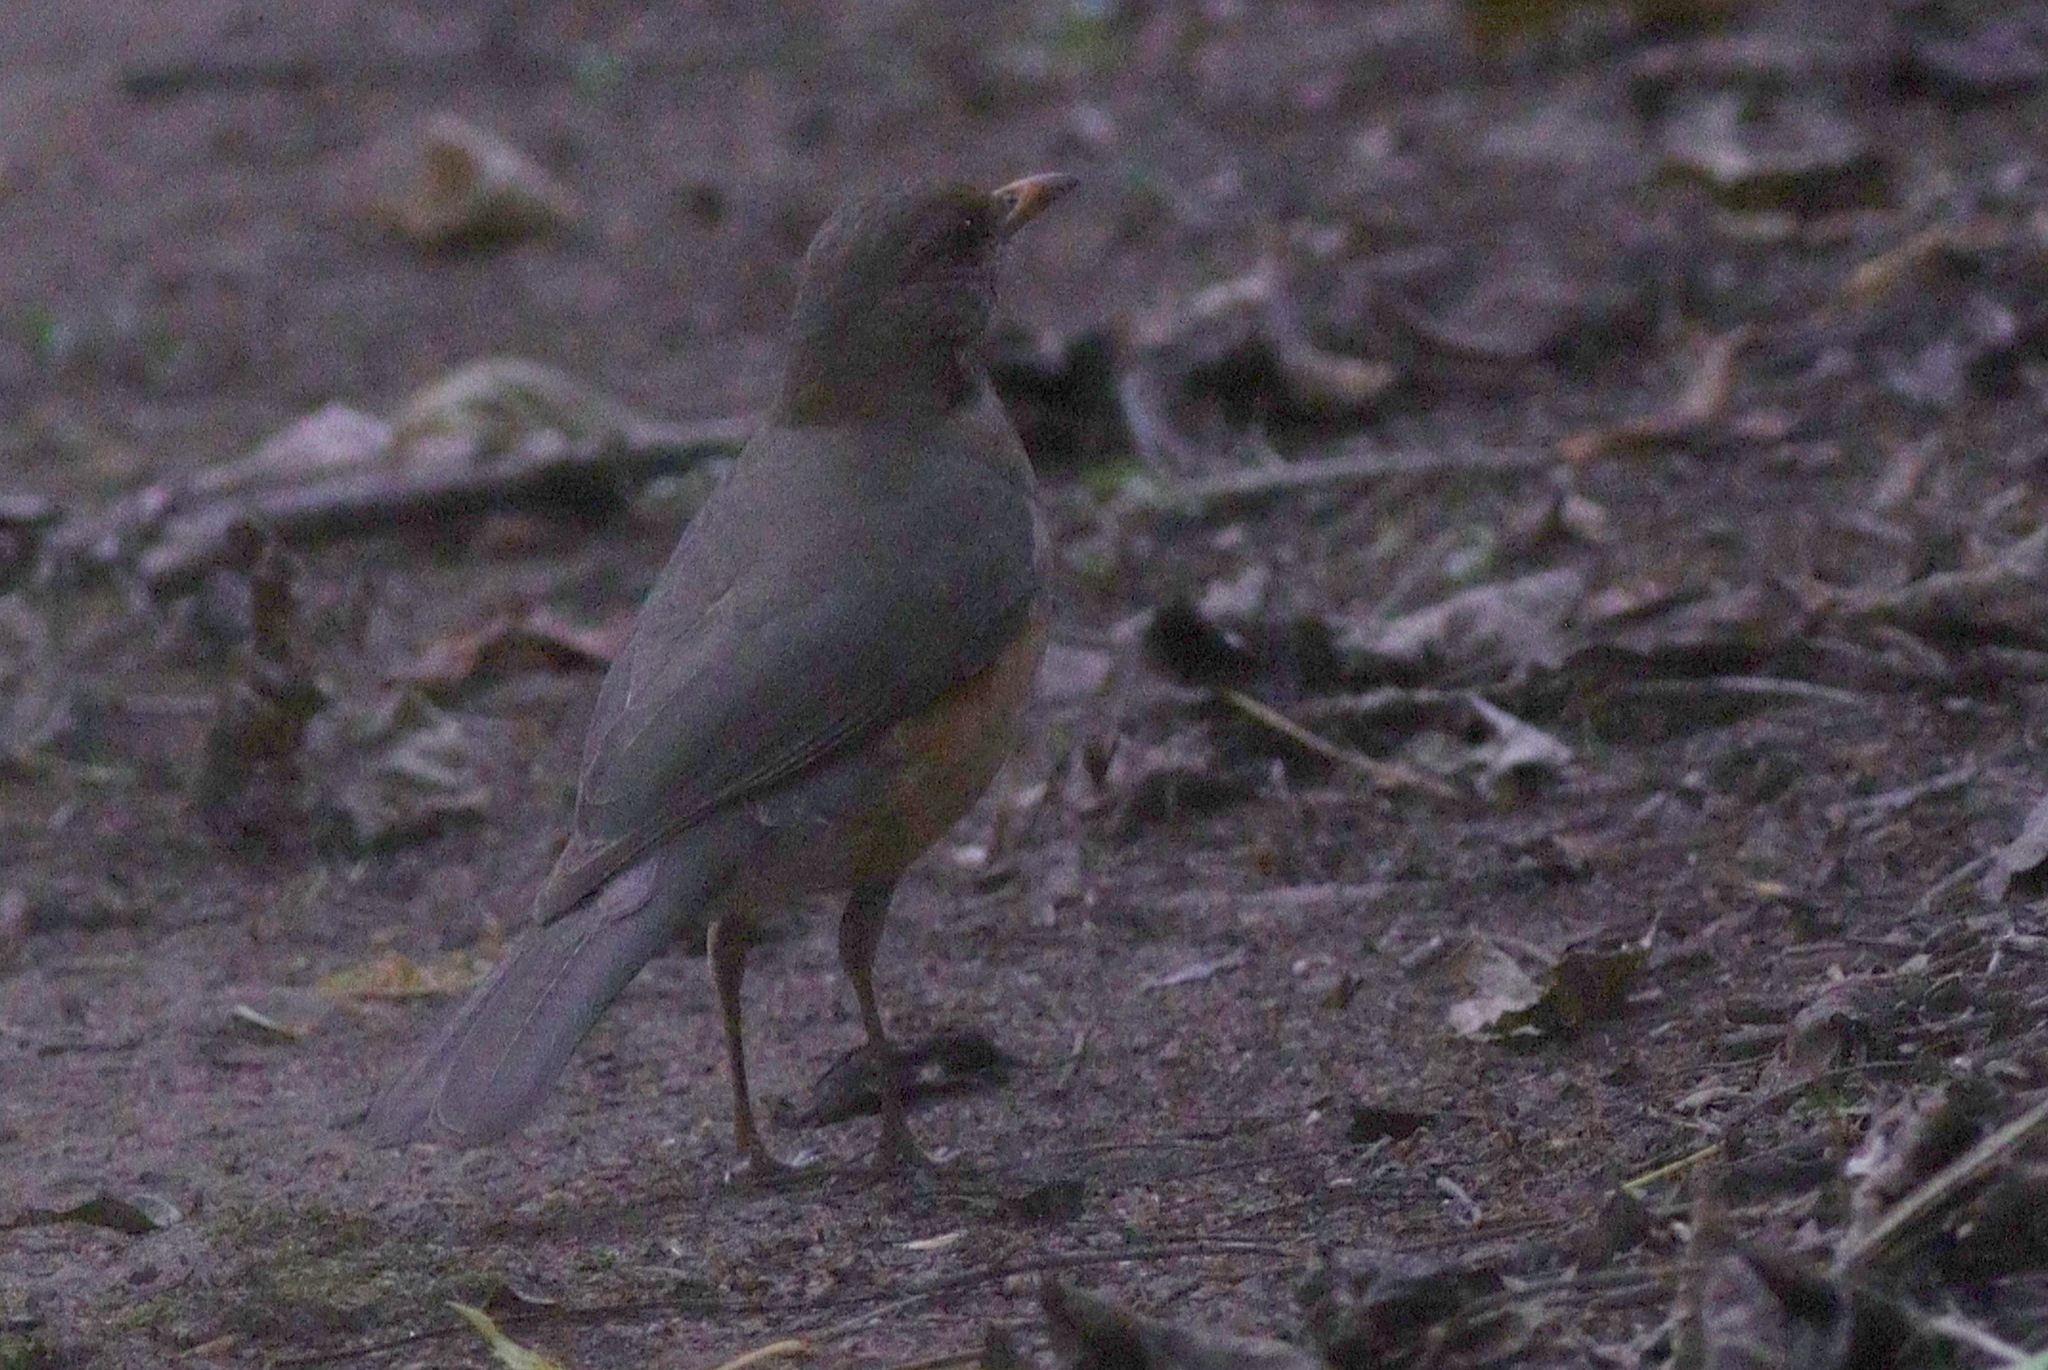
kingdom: Animalia
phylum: Chordata
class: Aves
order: Passeriformes
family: Turdidae
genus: Turdus
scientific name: Turdus pelios
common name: African thrush
